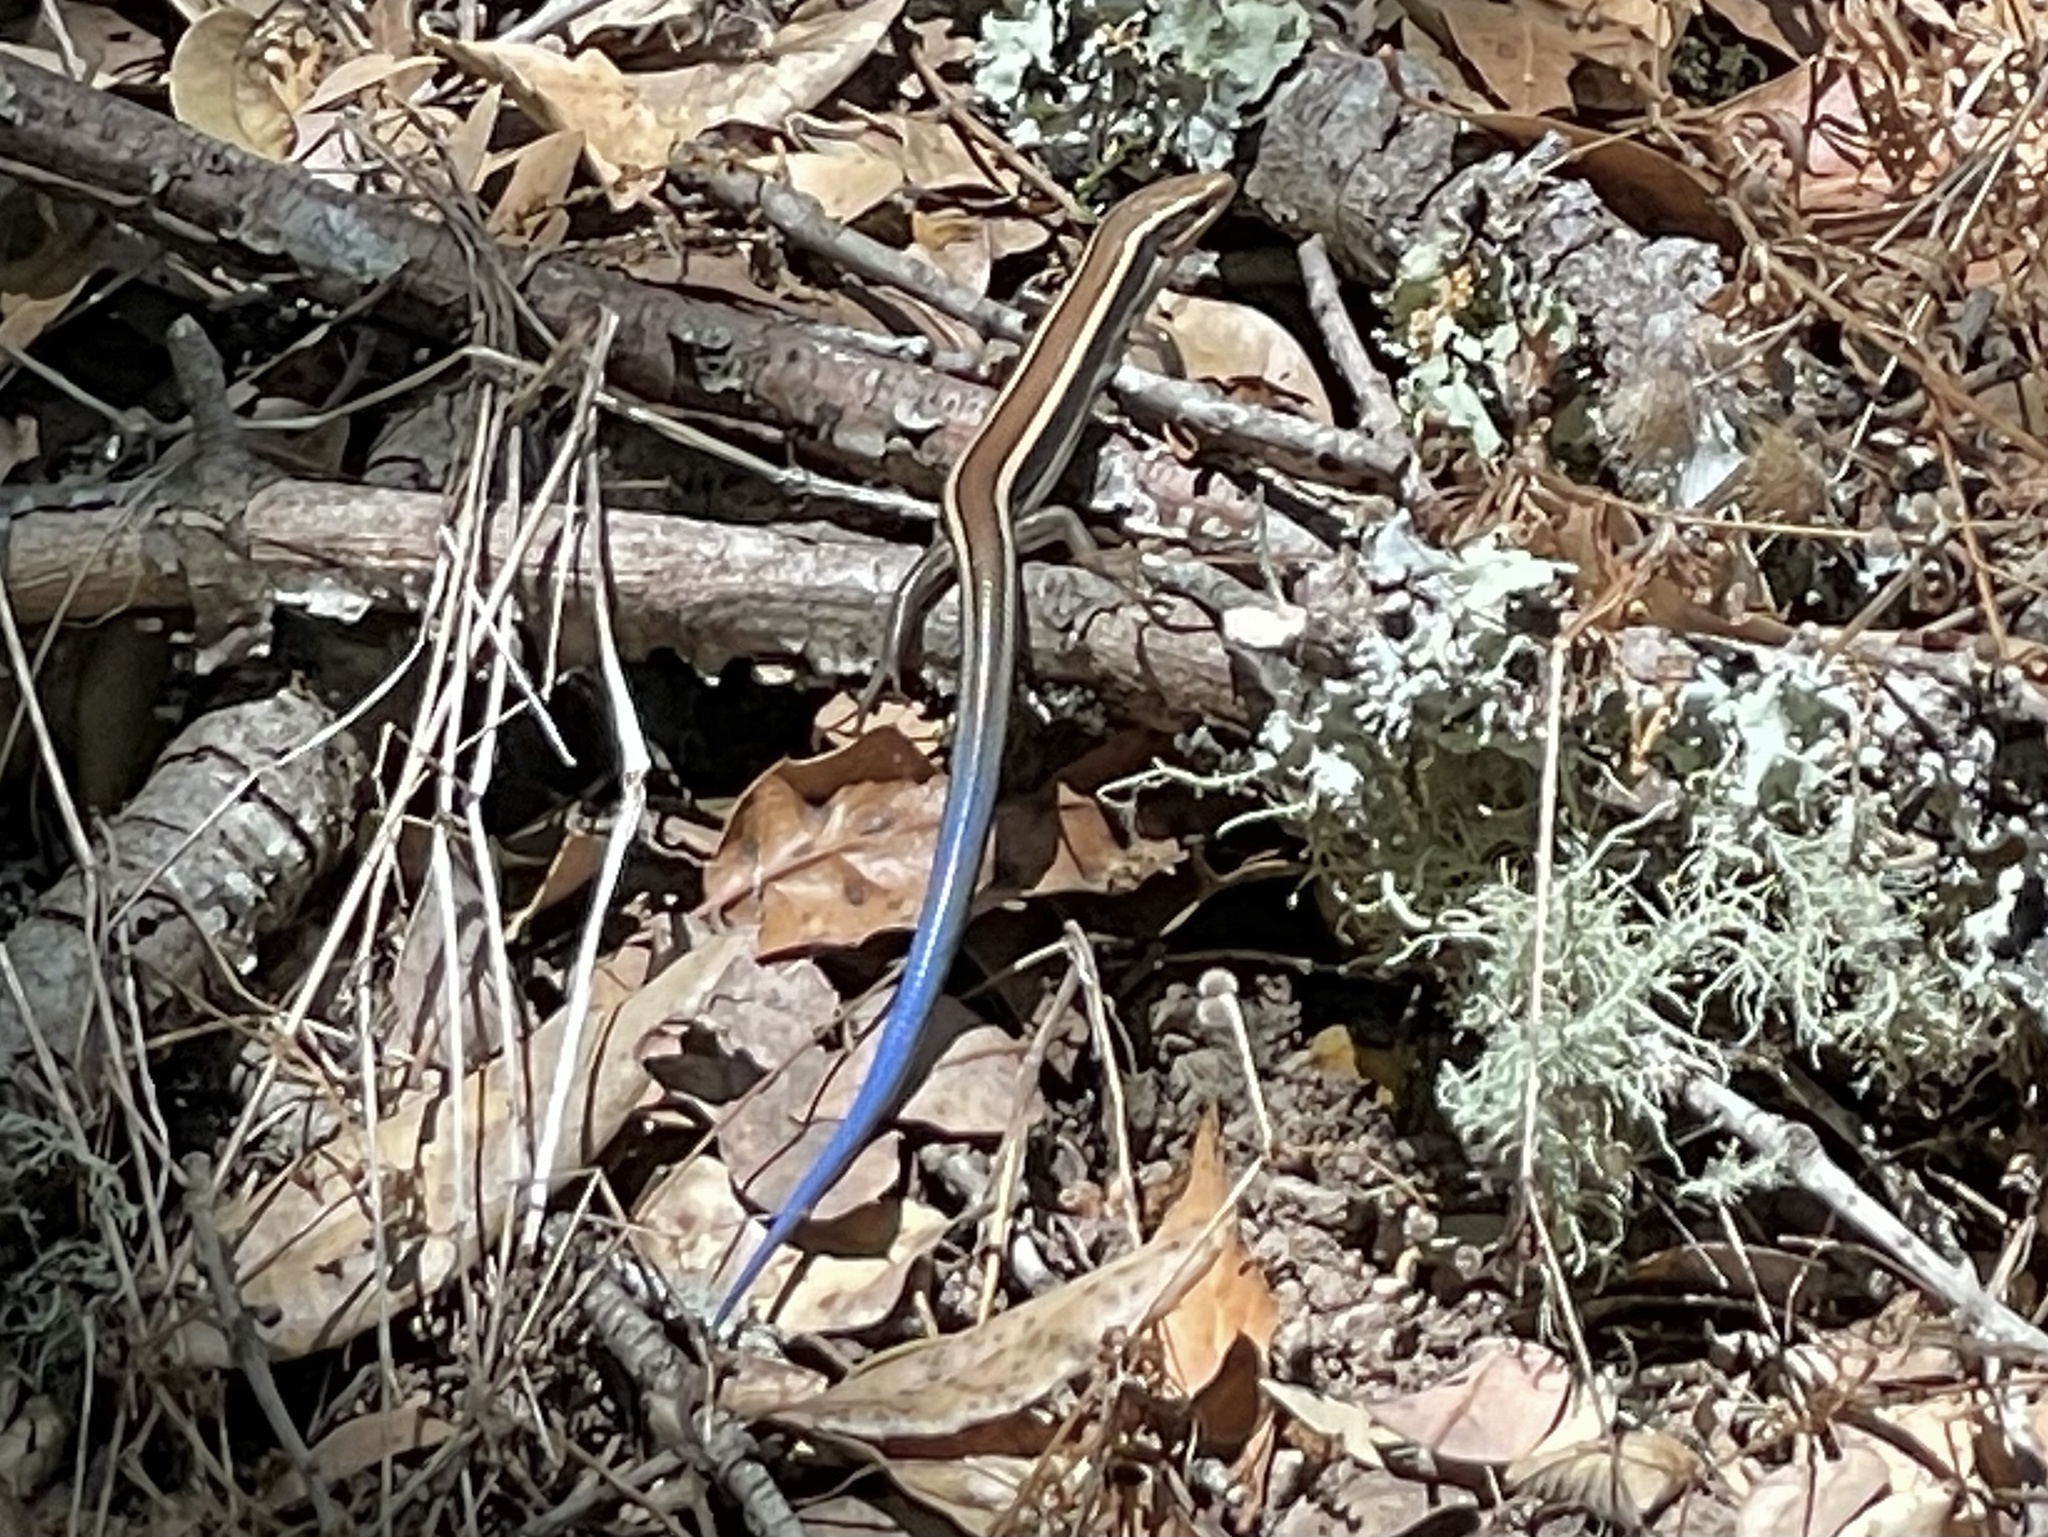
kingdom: Animalia
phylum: Chordata
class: Squamata
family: Scincidae
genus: Plestiodon
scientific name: Plestiodon skiltonianus
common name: Coronado island skink [interparietalis]
